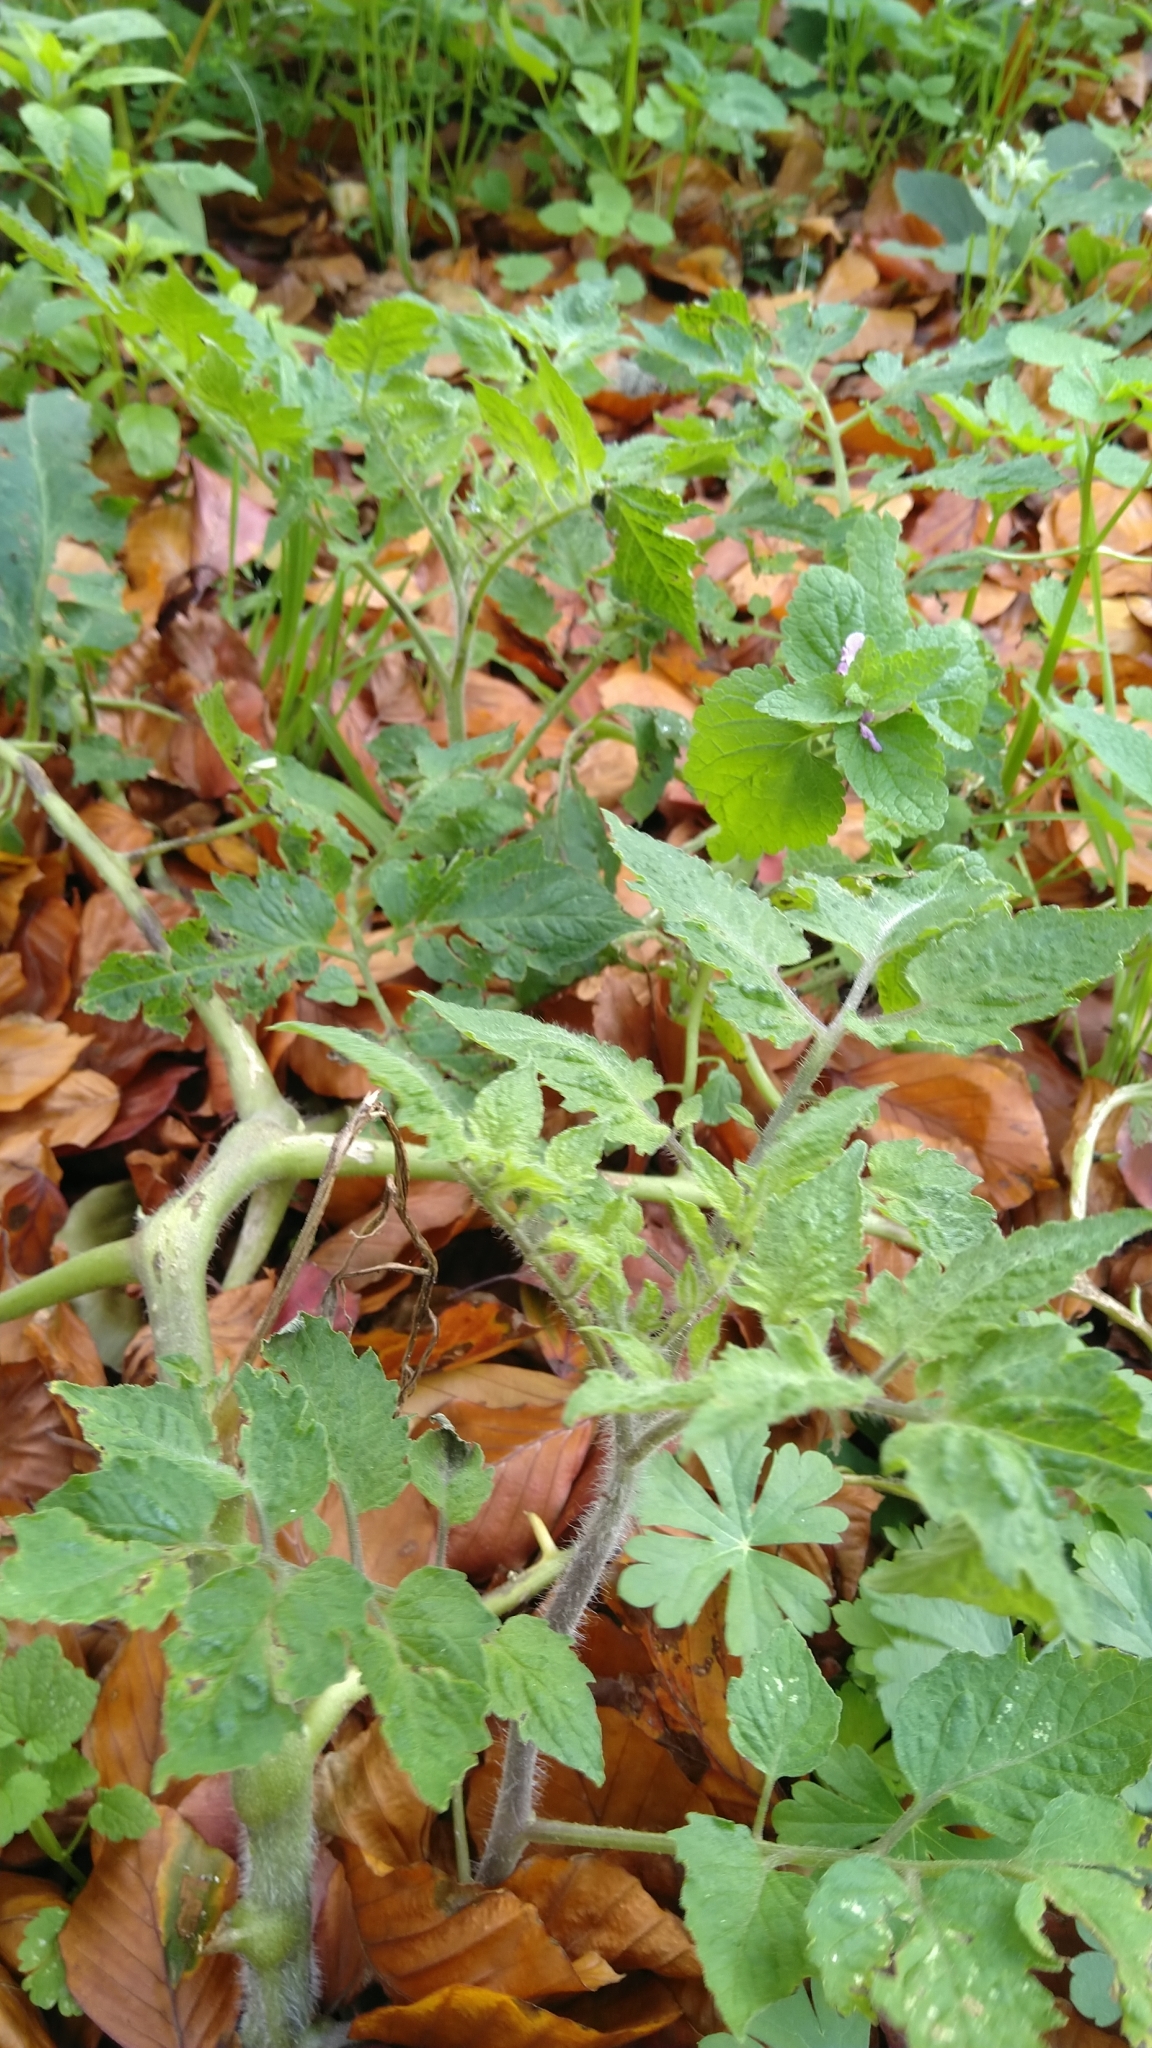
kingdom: Plantae
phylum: Tracheophyta
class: Magnoliopsida
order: Solanales
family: Solanaceae
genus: Solanum
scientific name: Solanum lycopersicum
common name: Garden tomato
